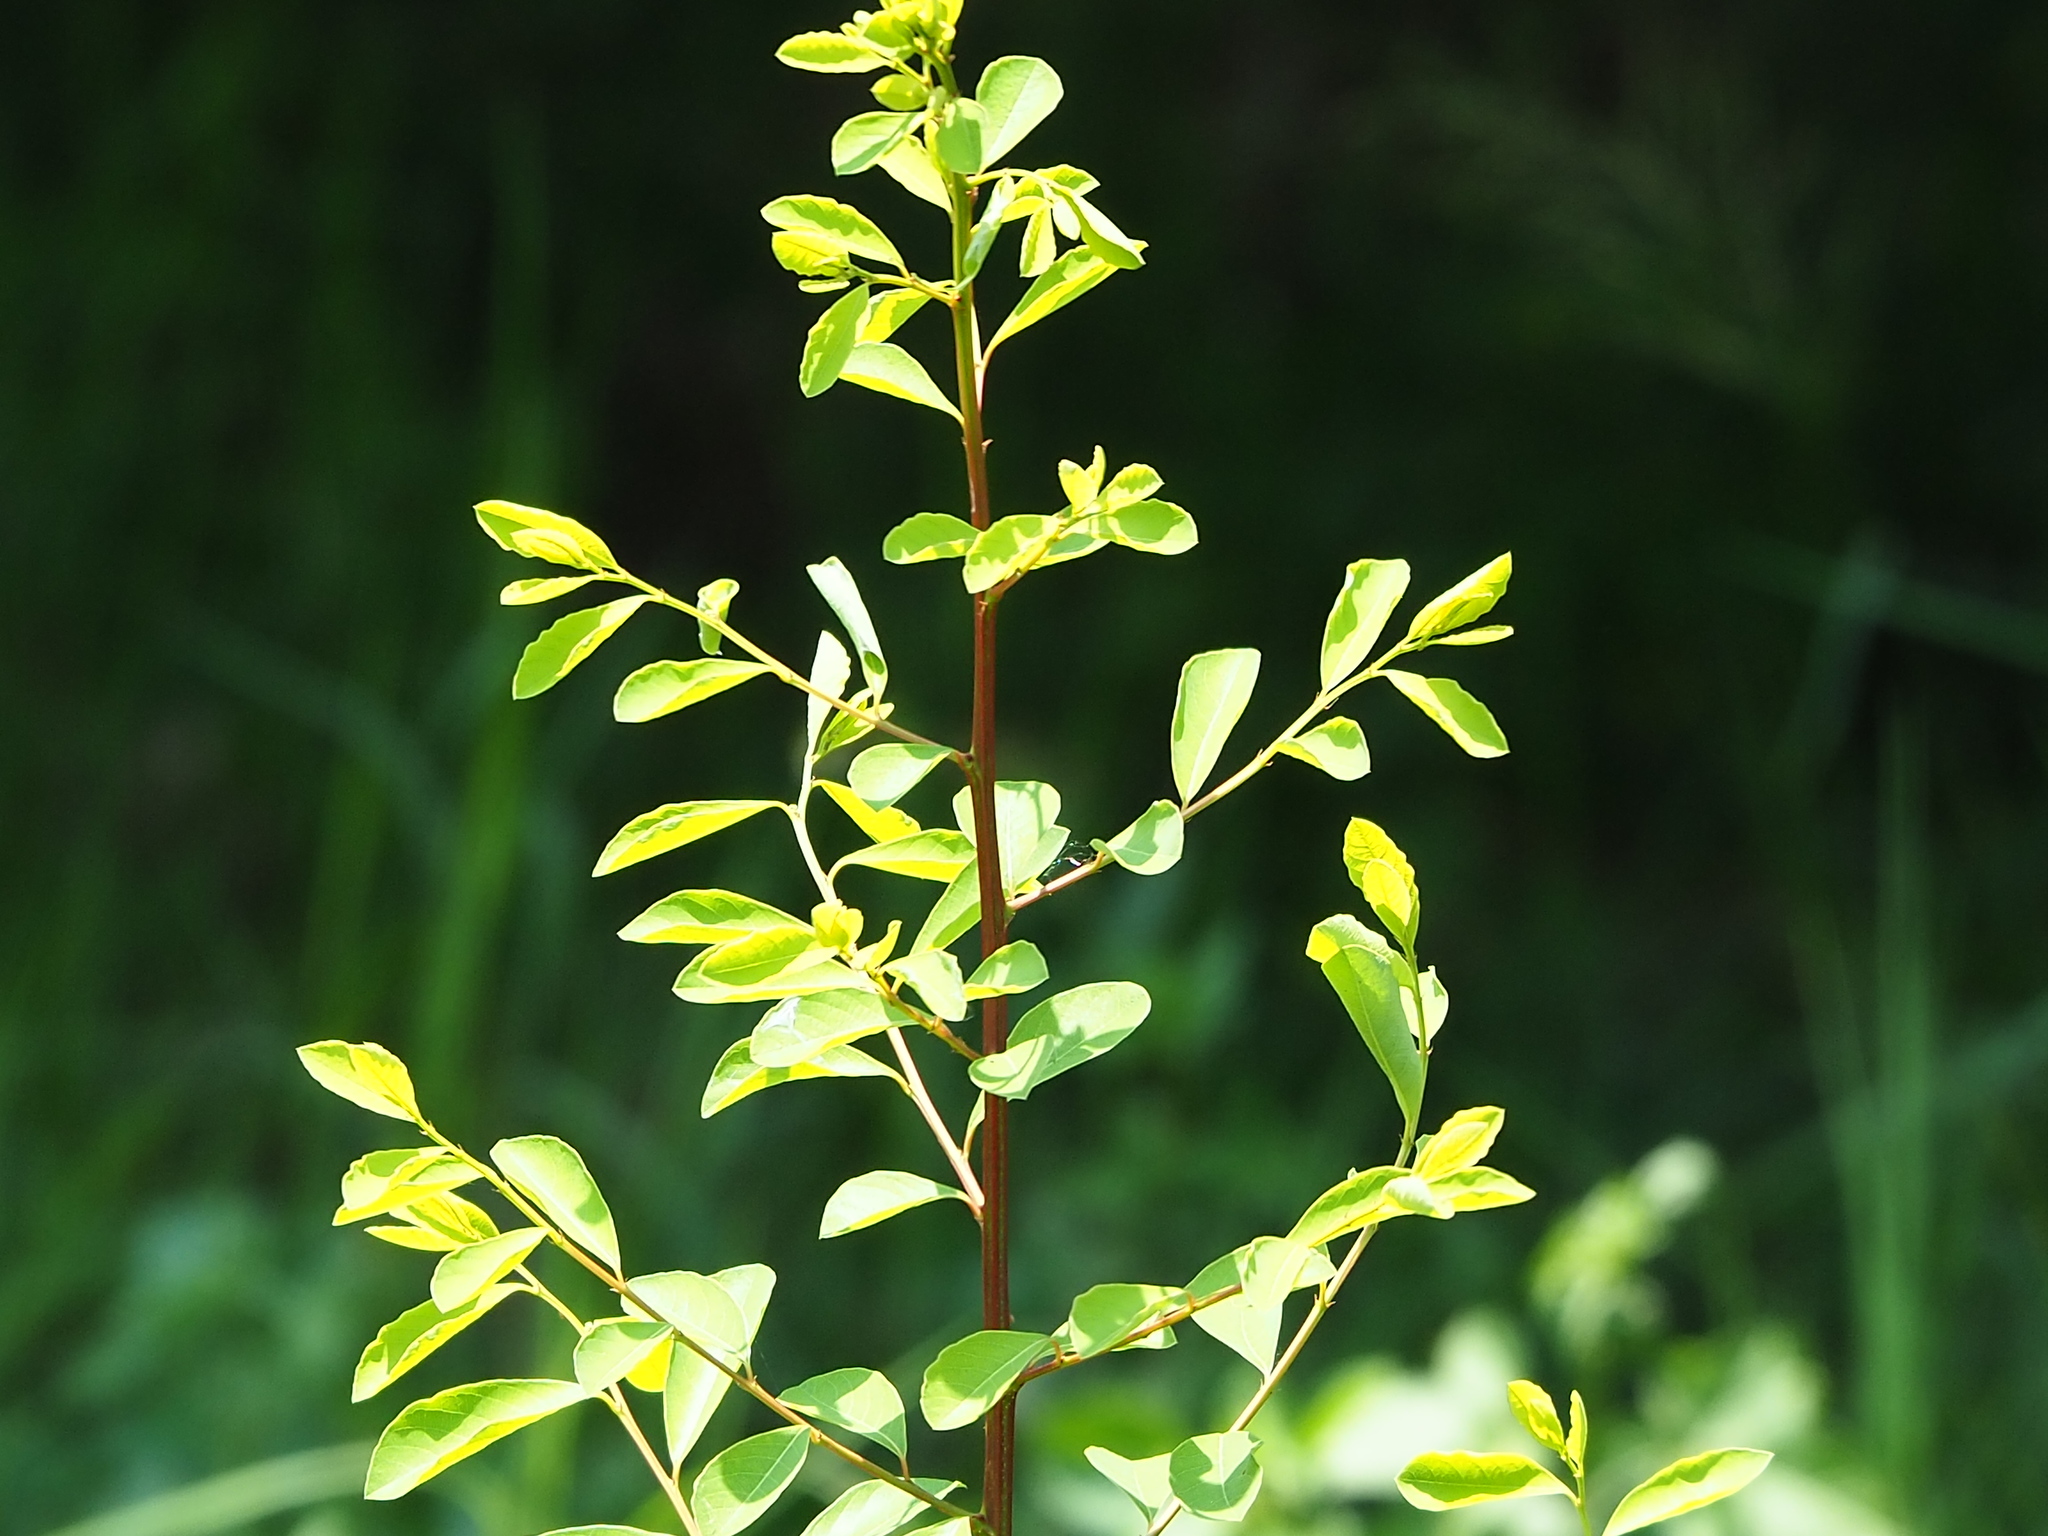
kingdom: Plantae
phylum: Tracheophyta
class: Magnoliopsida
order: Malpighiales
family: Phyllanthaceae
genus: Flueggea
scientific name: Flueggea virosa
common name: Common bushweed
